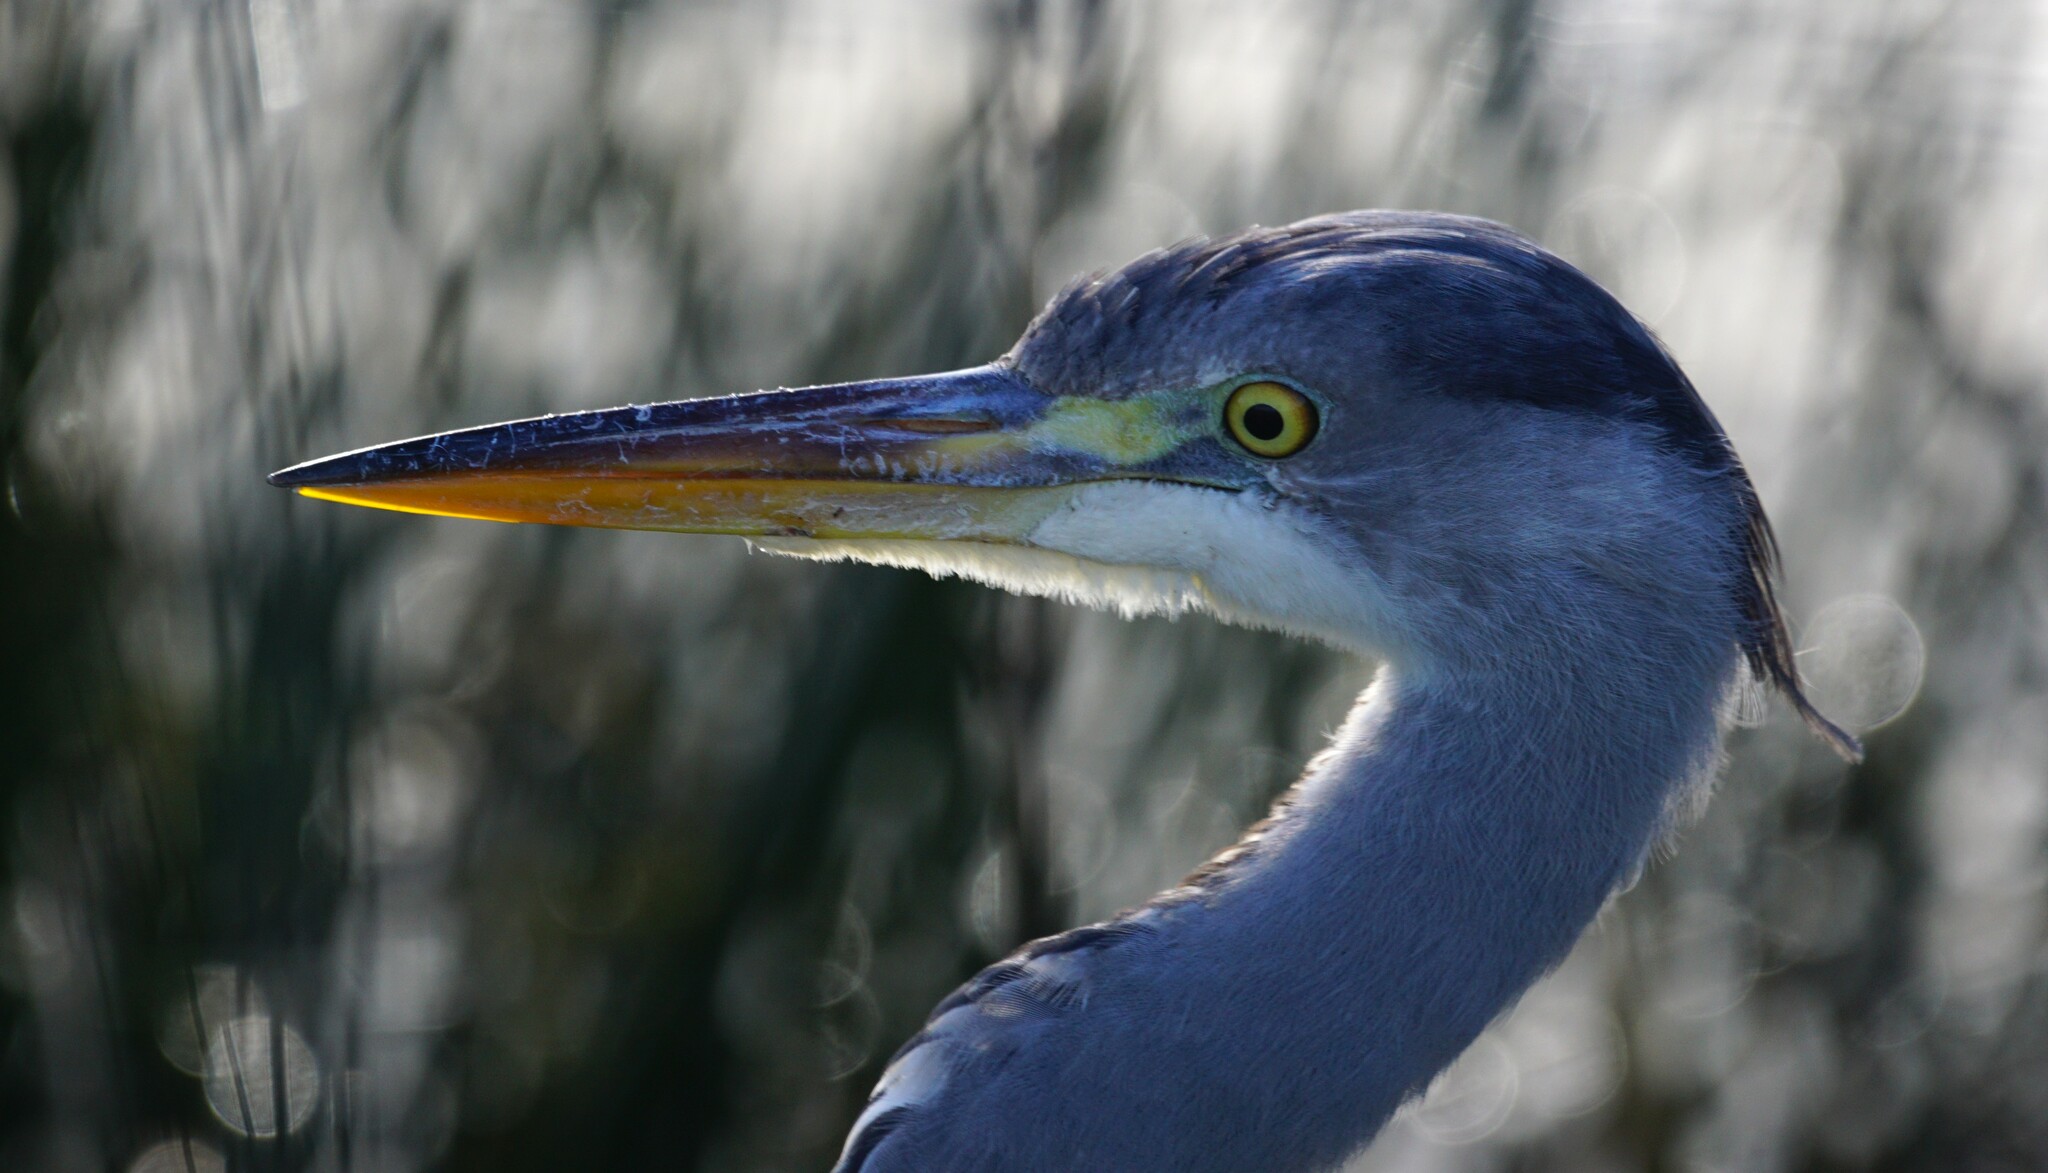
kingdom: Animalia
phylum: Chordata
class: Aves
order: Pelecaniformes
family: Ardeidae
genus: Ardea
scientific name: Ardea cinerea
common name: Grey heron
